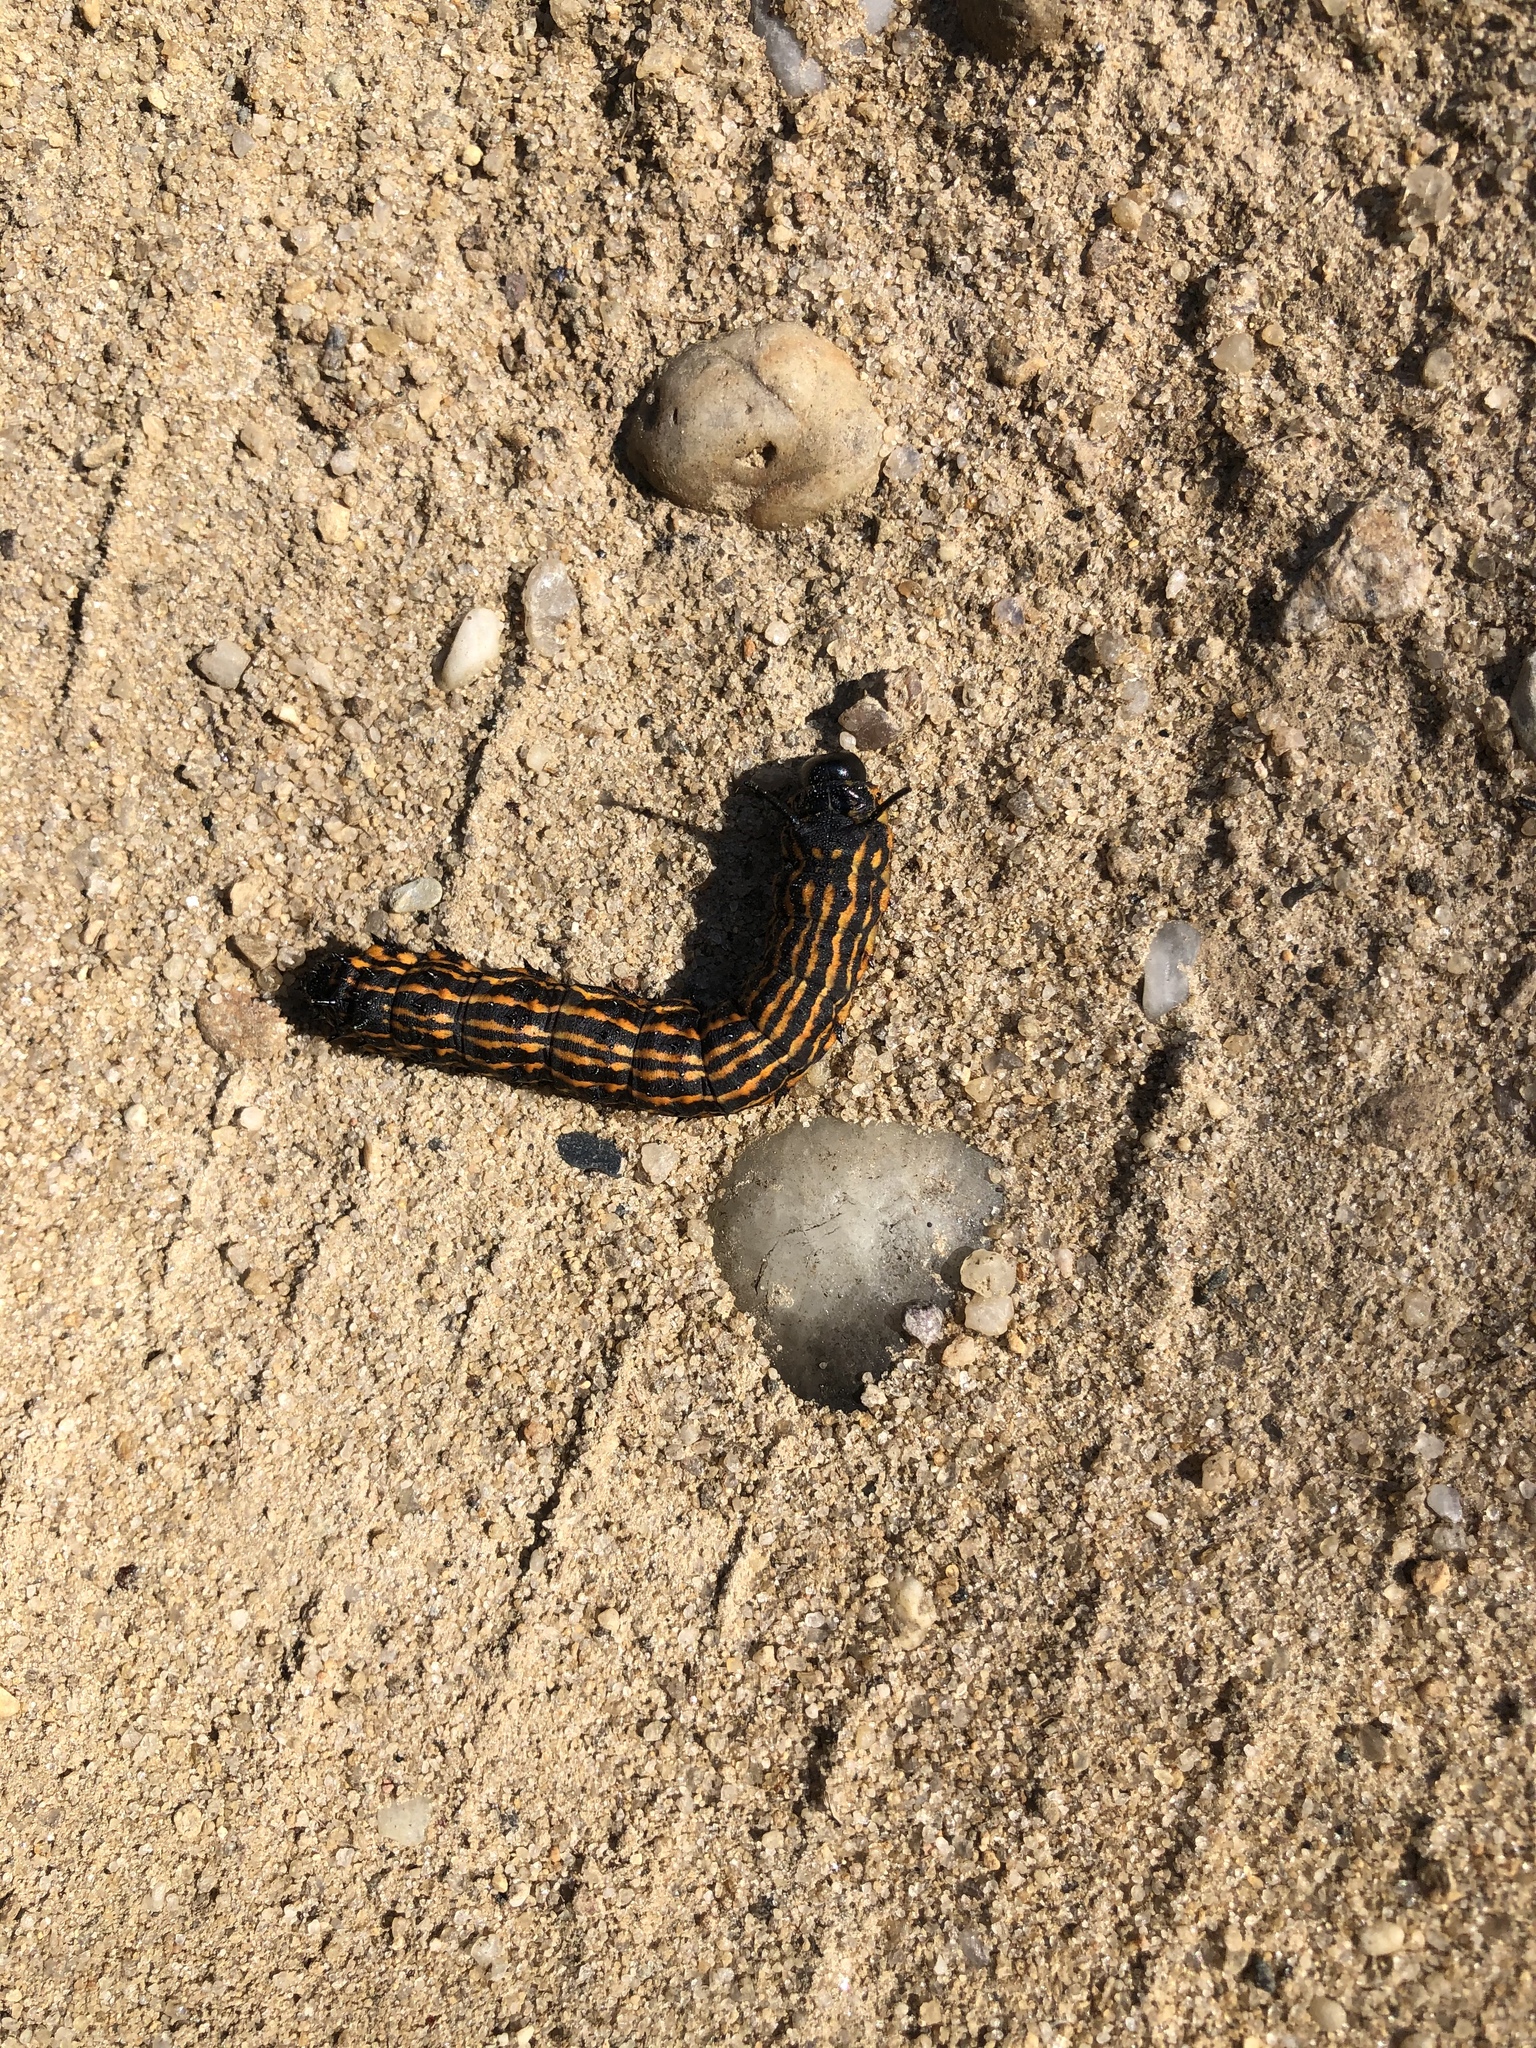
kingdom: Animalia
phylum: Arthropoda
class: Insecta
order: Lepidoptera
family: Saturniidae
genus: Anisota
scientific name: Anisota senatoria
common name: Orange-striped oakworm moth
